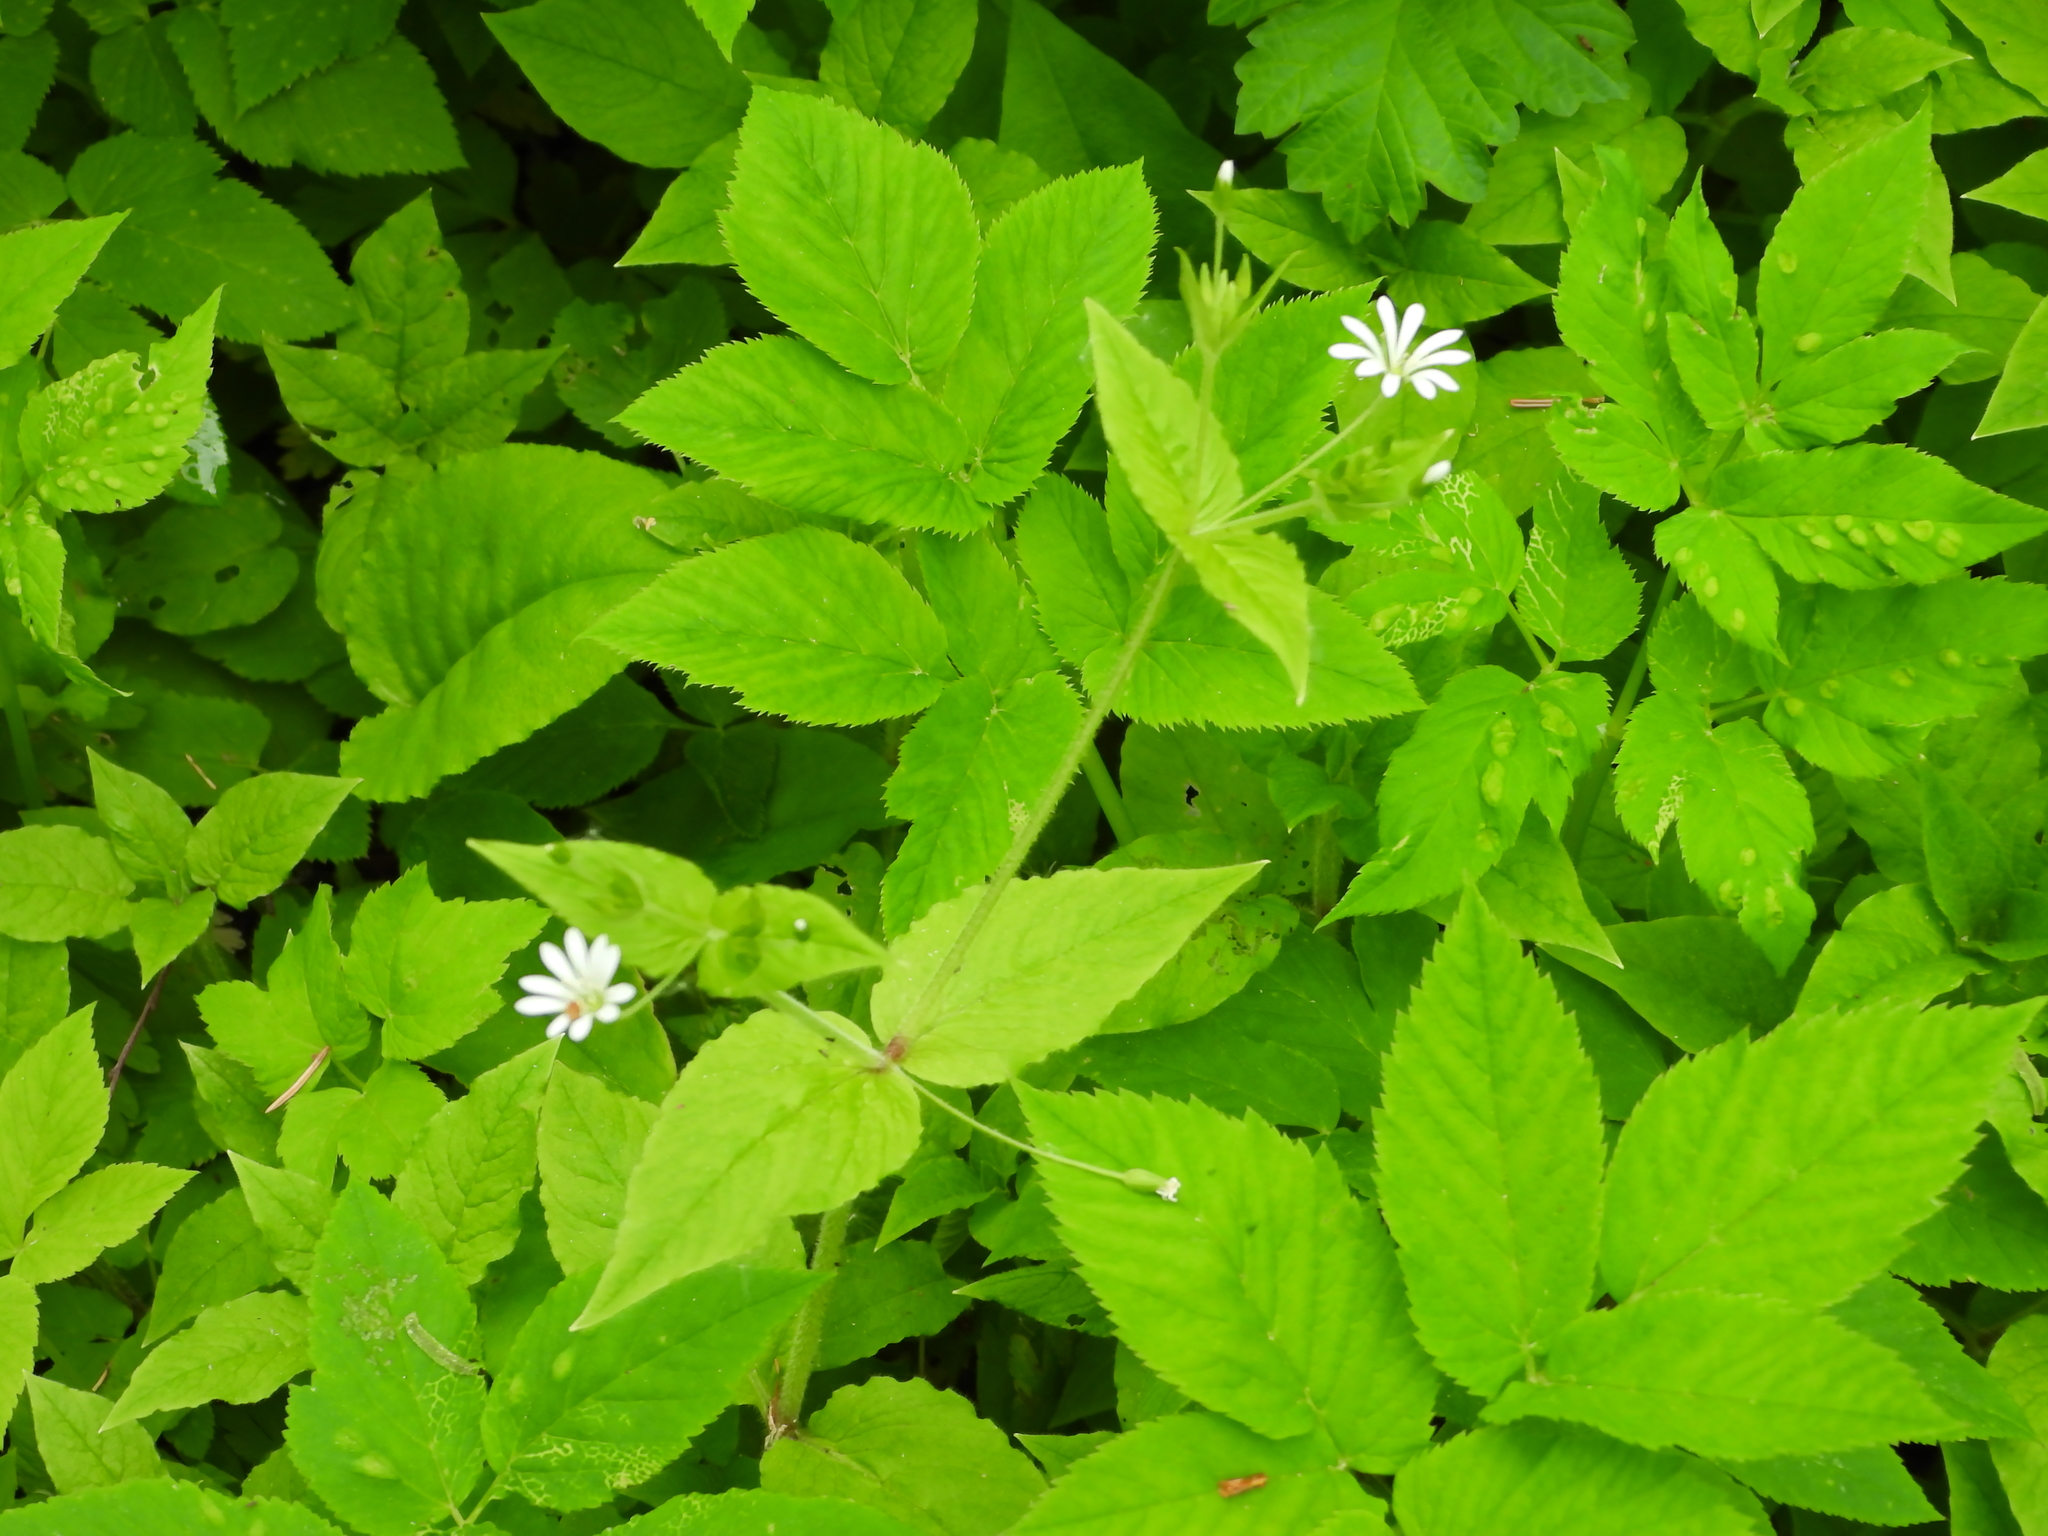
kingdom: Plantae
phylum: Tracheophyta
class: Magnoliopsida
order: Caryophyllales
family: Caryophyllaceae
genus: Stellaria
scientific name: Stellaria nemorum
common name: Wood stitchwort
